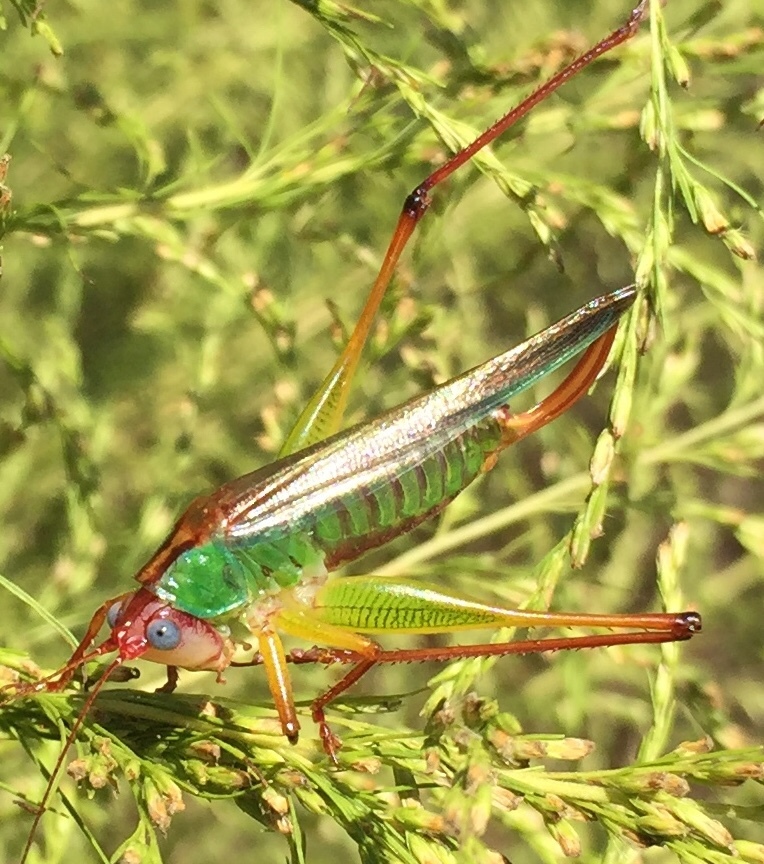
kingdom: Animalia
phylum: Arthropoda
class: Insecta
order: Orthoptera
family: Tettigoniidae
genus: Orchelimum
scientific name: Orchelimum pulchellum
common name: Handsome meadow katydid
